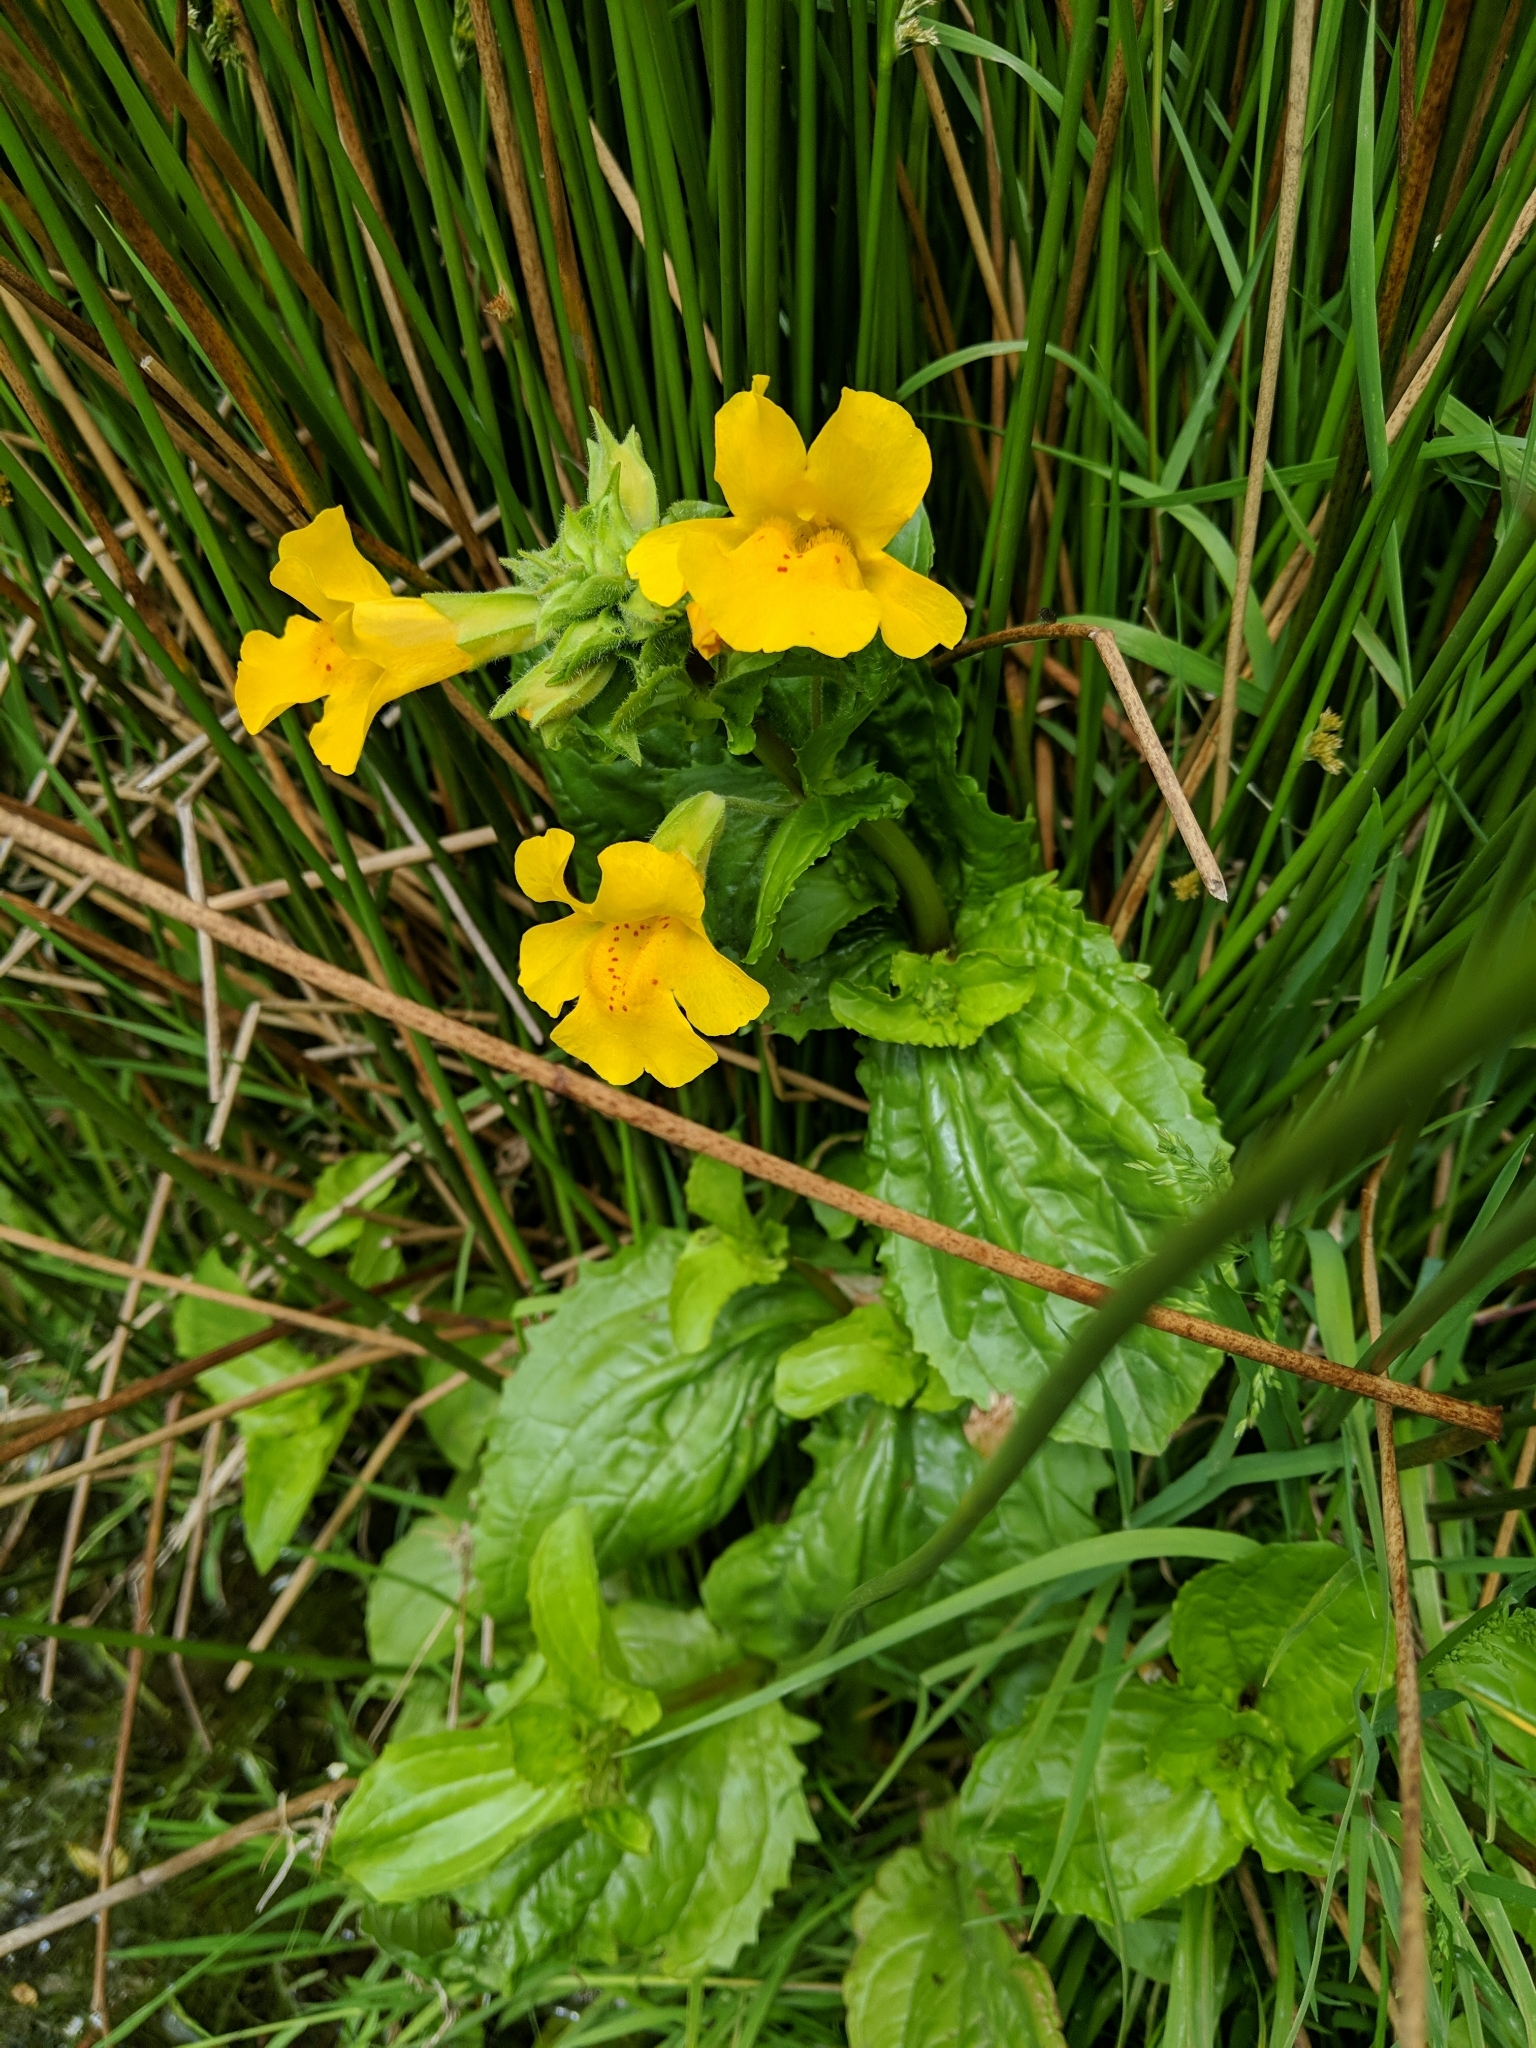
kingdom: Plantae
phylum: Tracheophyta
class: Magnoliopsida
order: Lamiales
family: Phrymaceae
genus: Erythranthe
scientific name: Erythranthe guttata
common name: Monkeyflower
